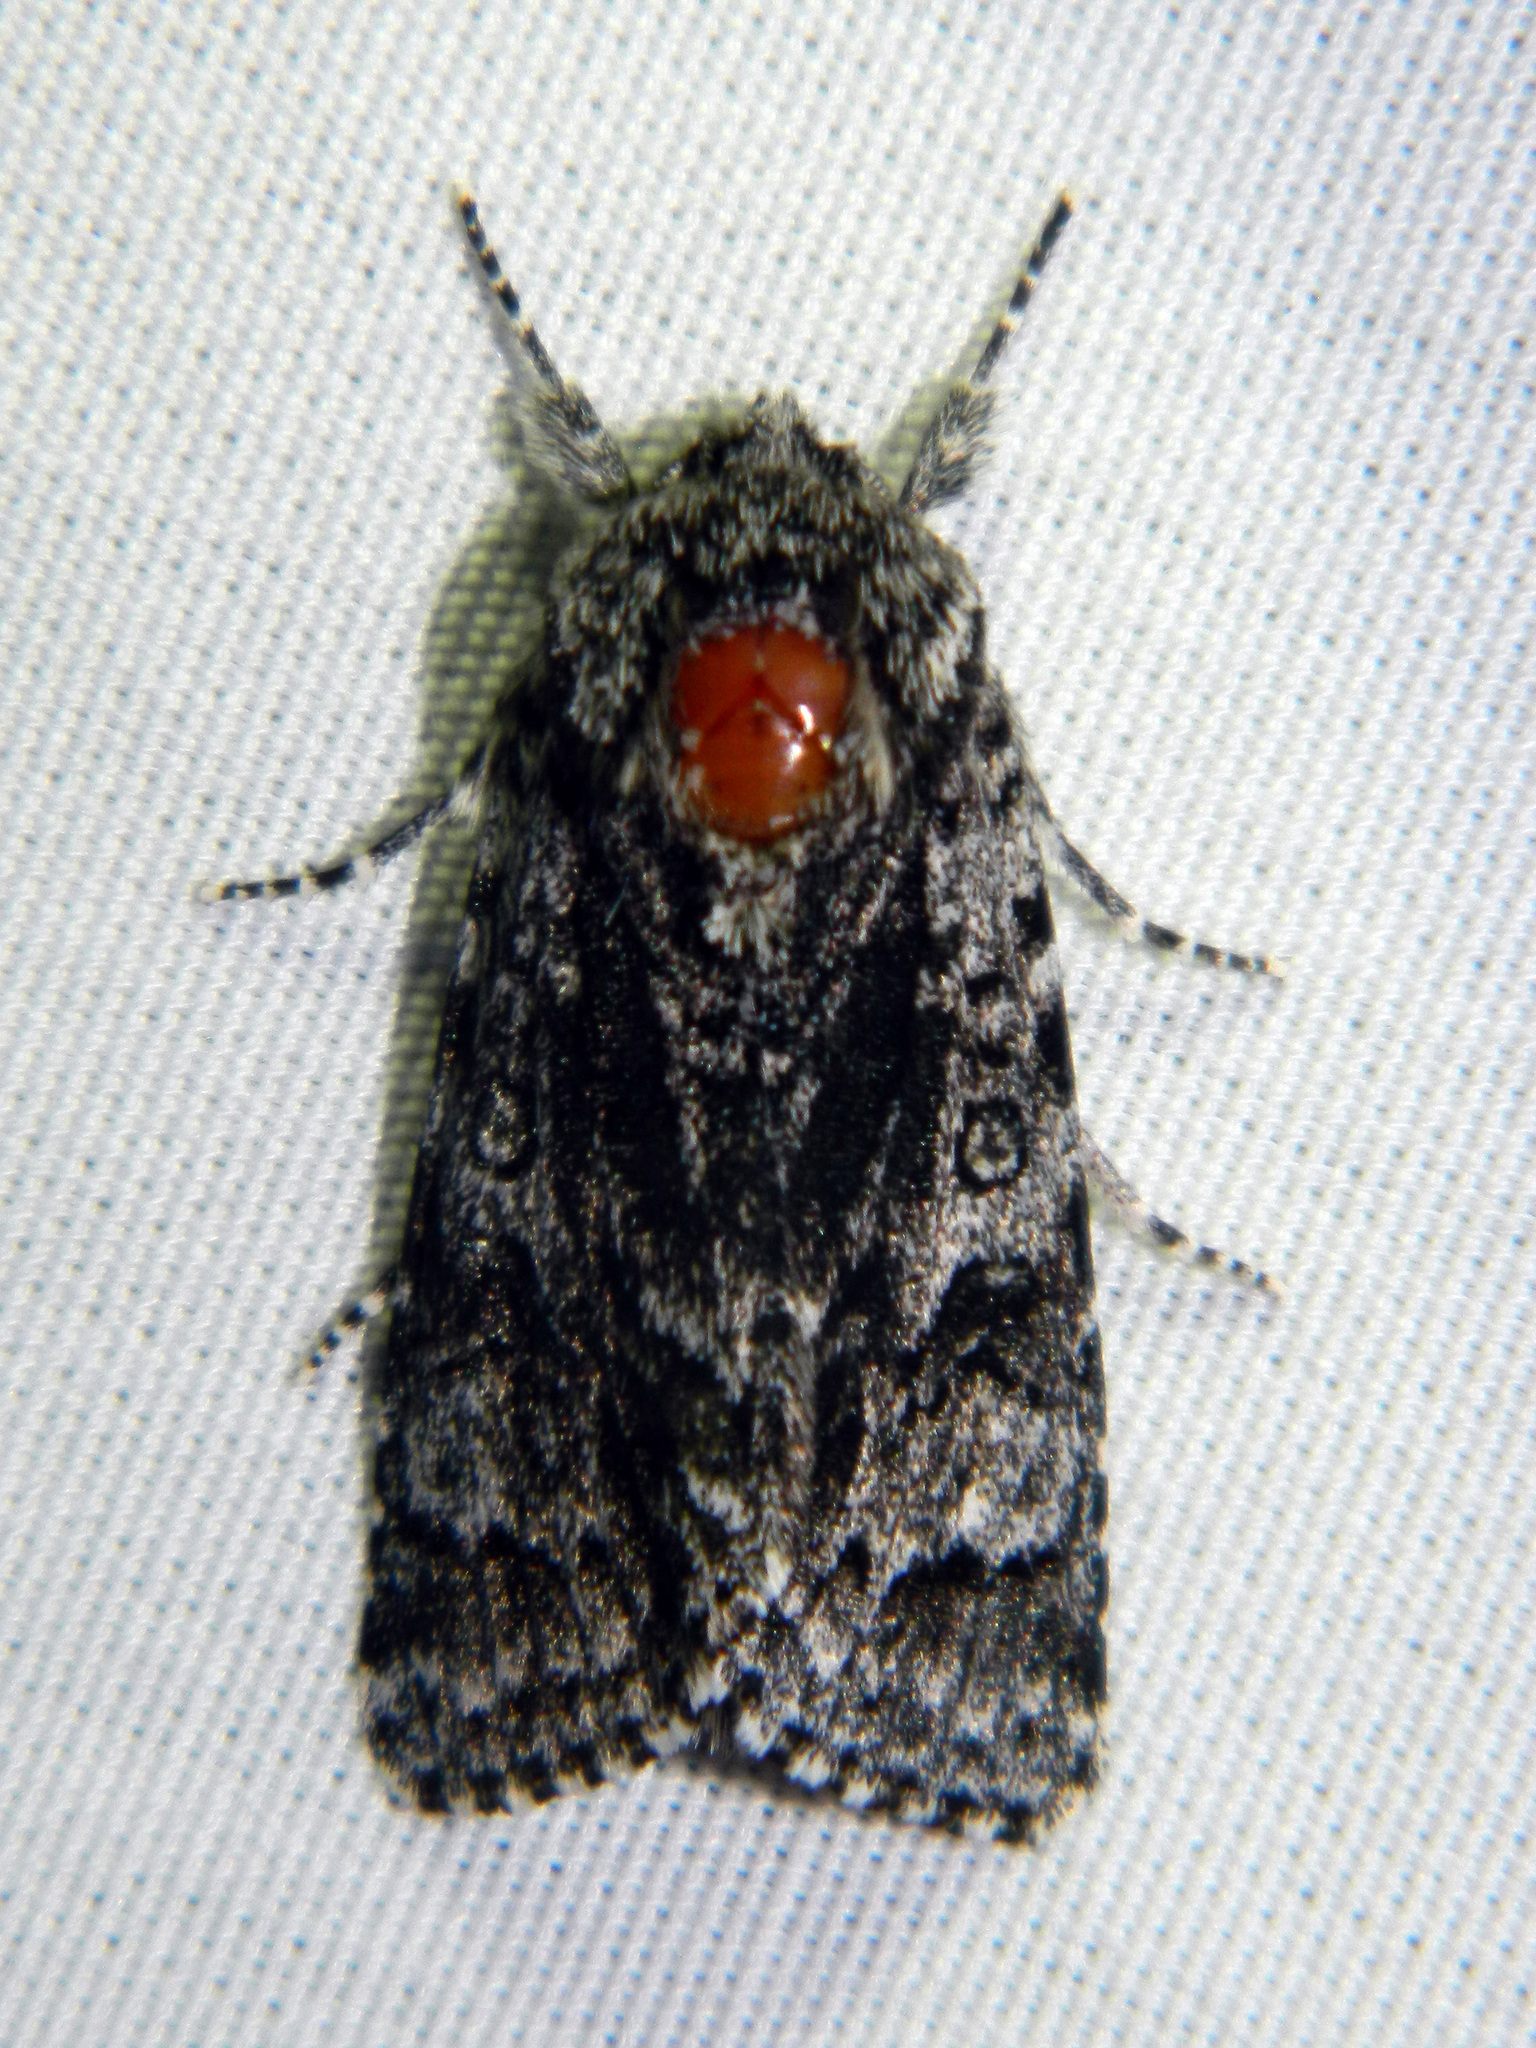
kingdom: Animalia
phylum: Arthropoda
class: Insecta
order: Lepidoptera
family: Noctuidae
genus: Acronicta
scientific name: Acronicta impressa
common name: Impressed dagger
